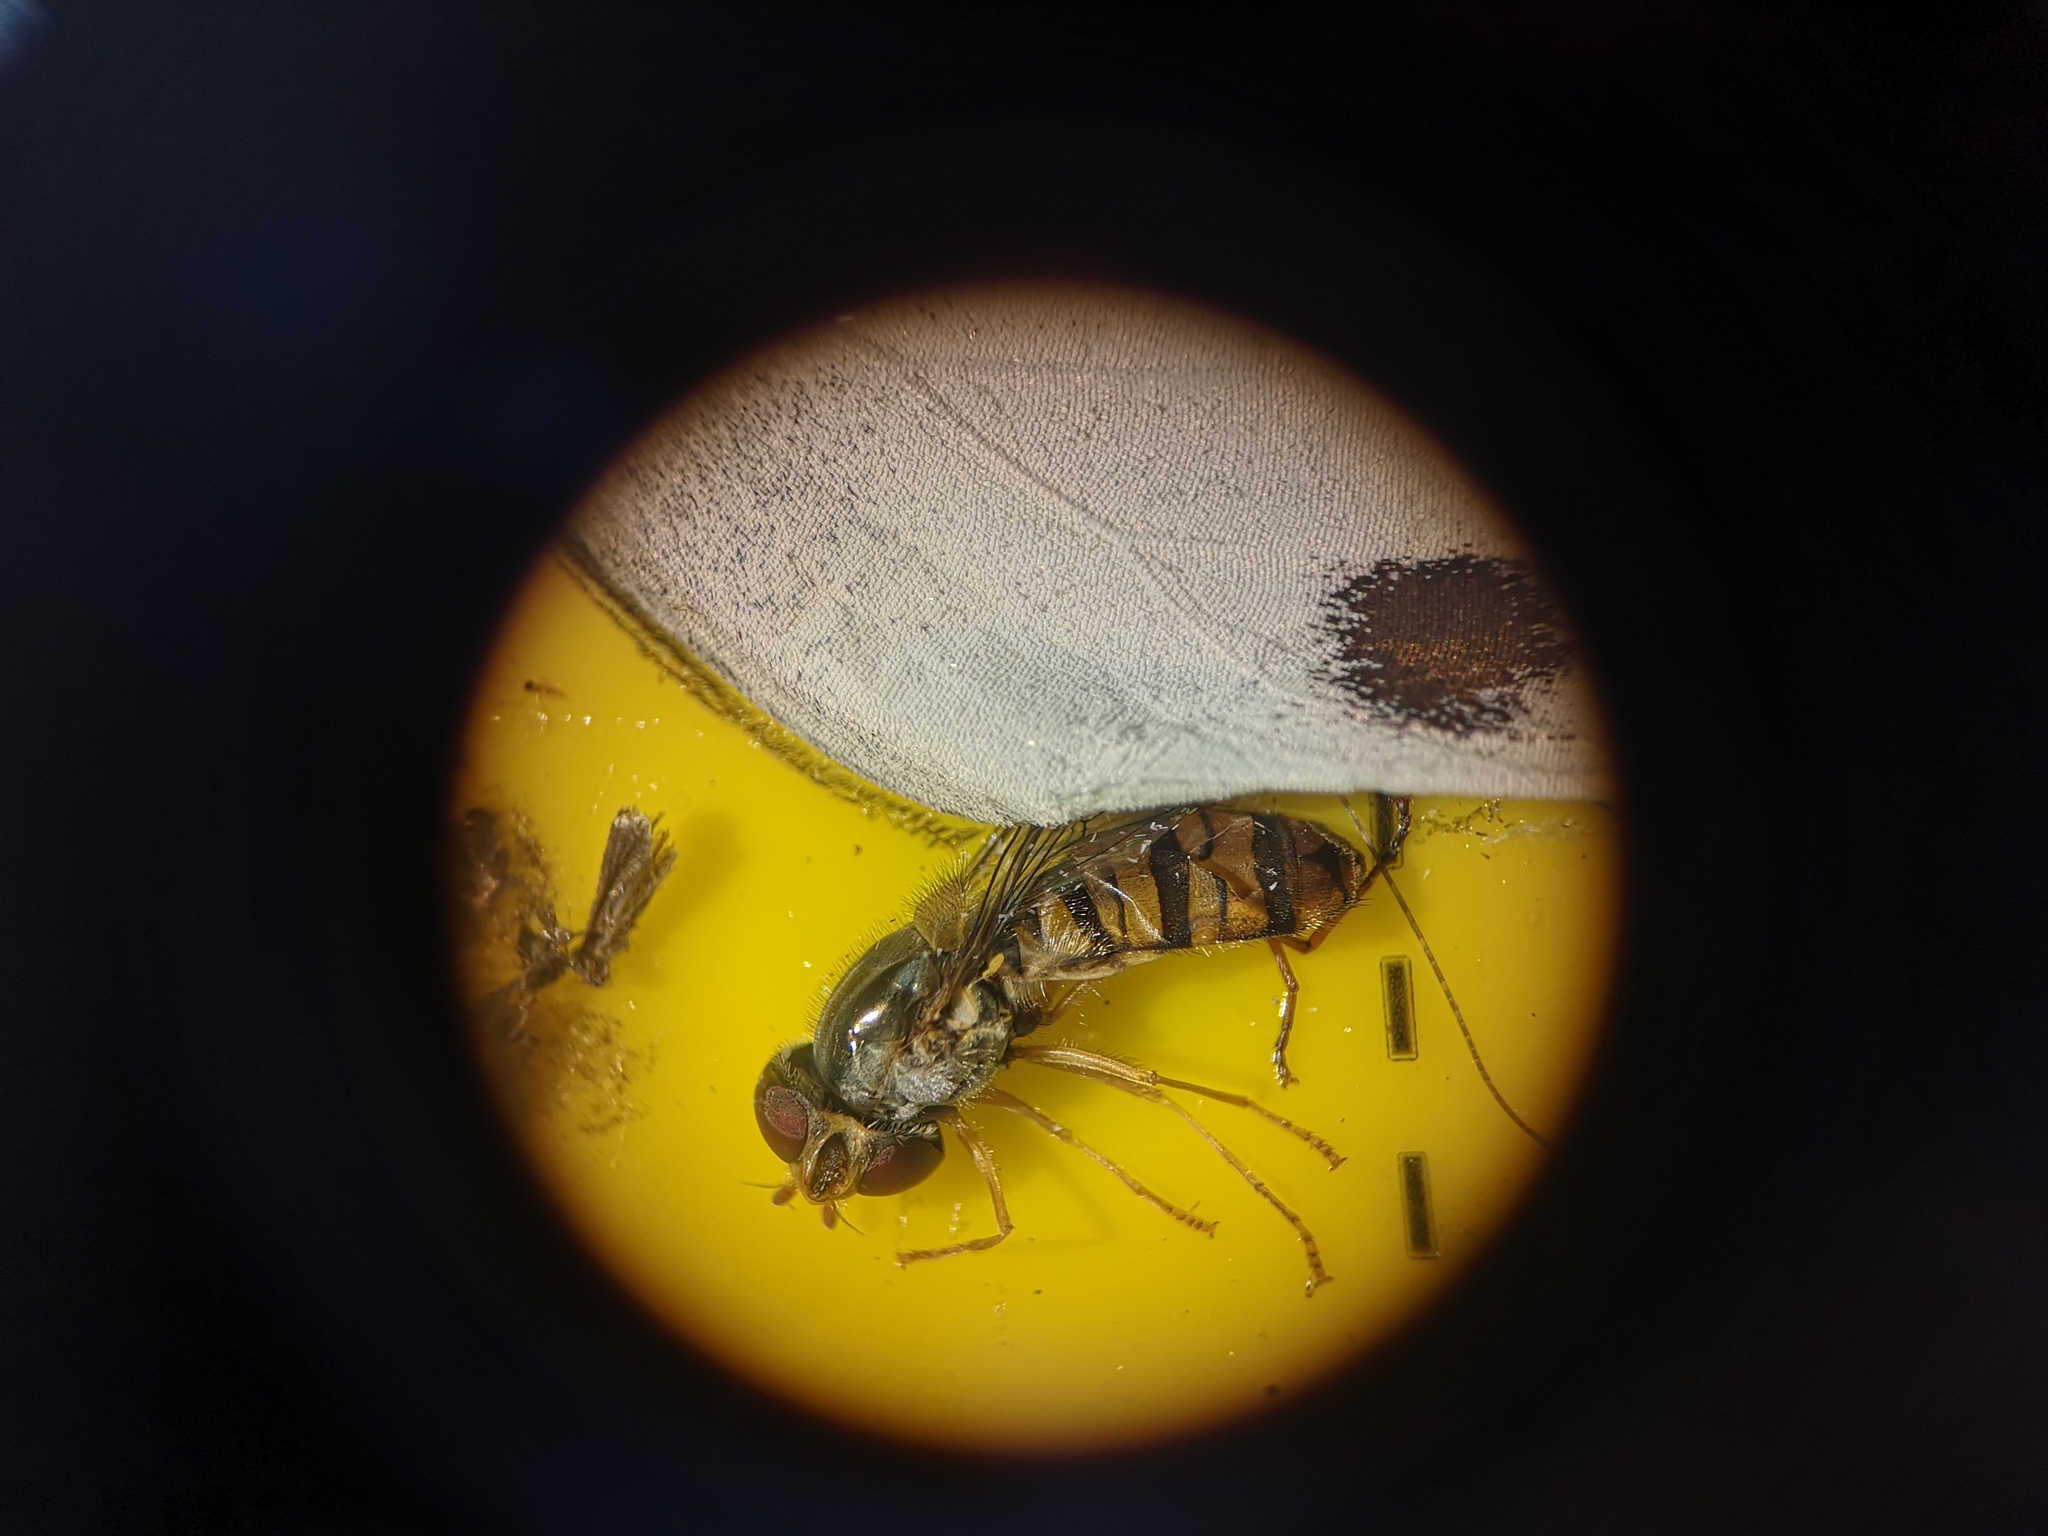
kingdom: Animalia
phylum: Arthropoda
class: Insecta
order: Diptera
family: Syrphidae
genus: Episyrphus
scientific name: Episyrphus balteatus
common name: Marmalade hoverfly
